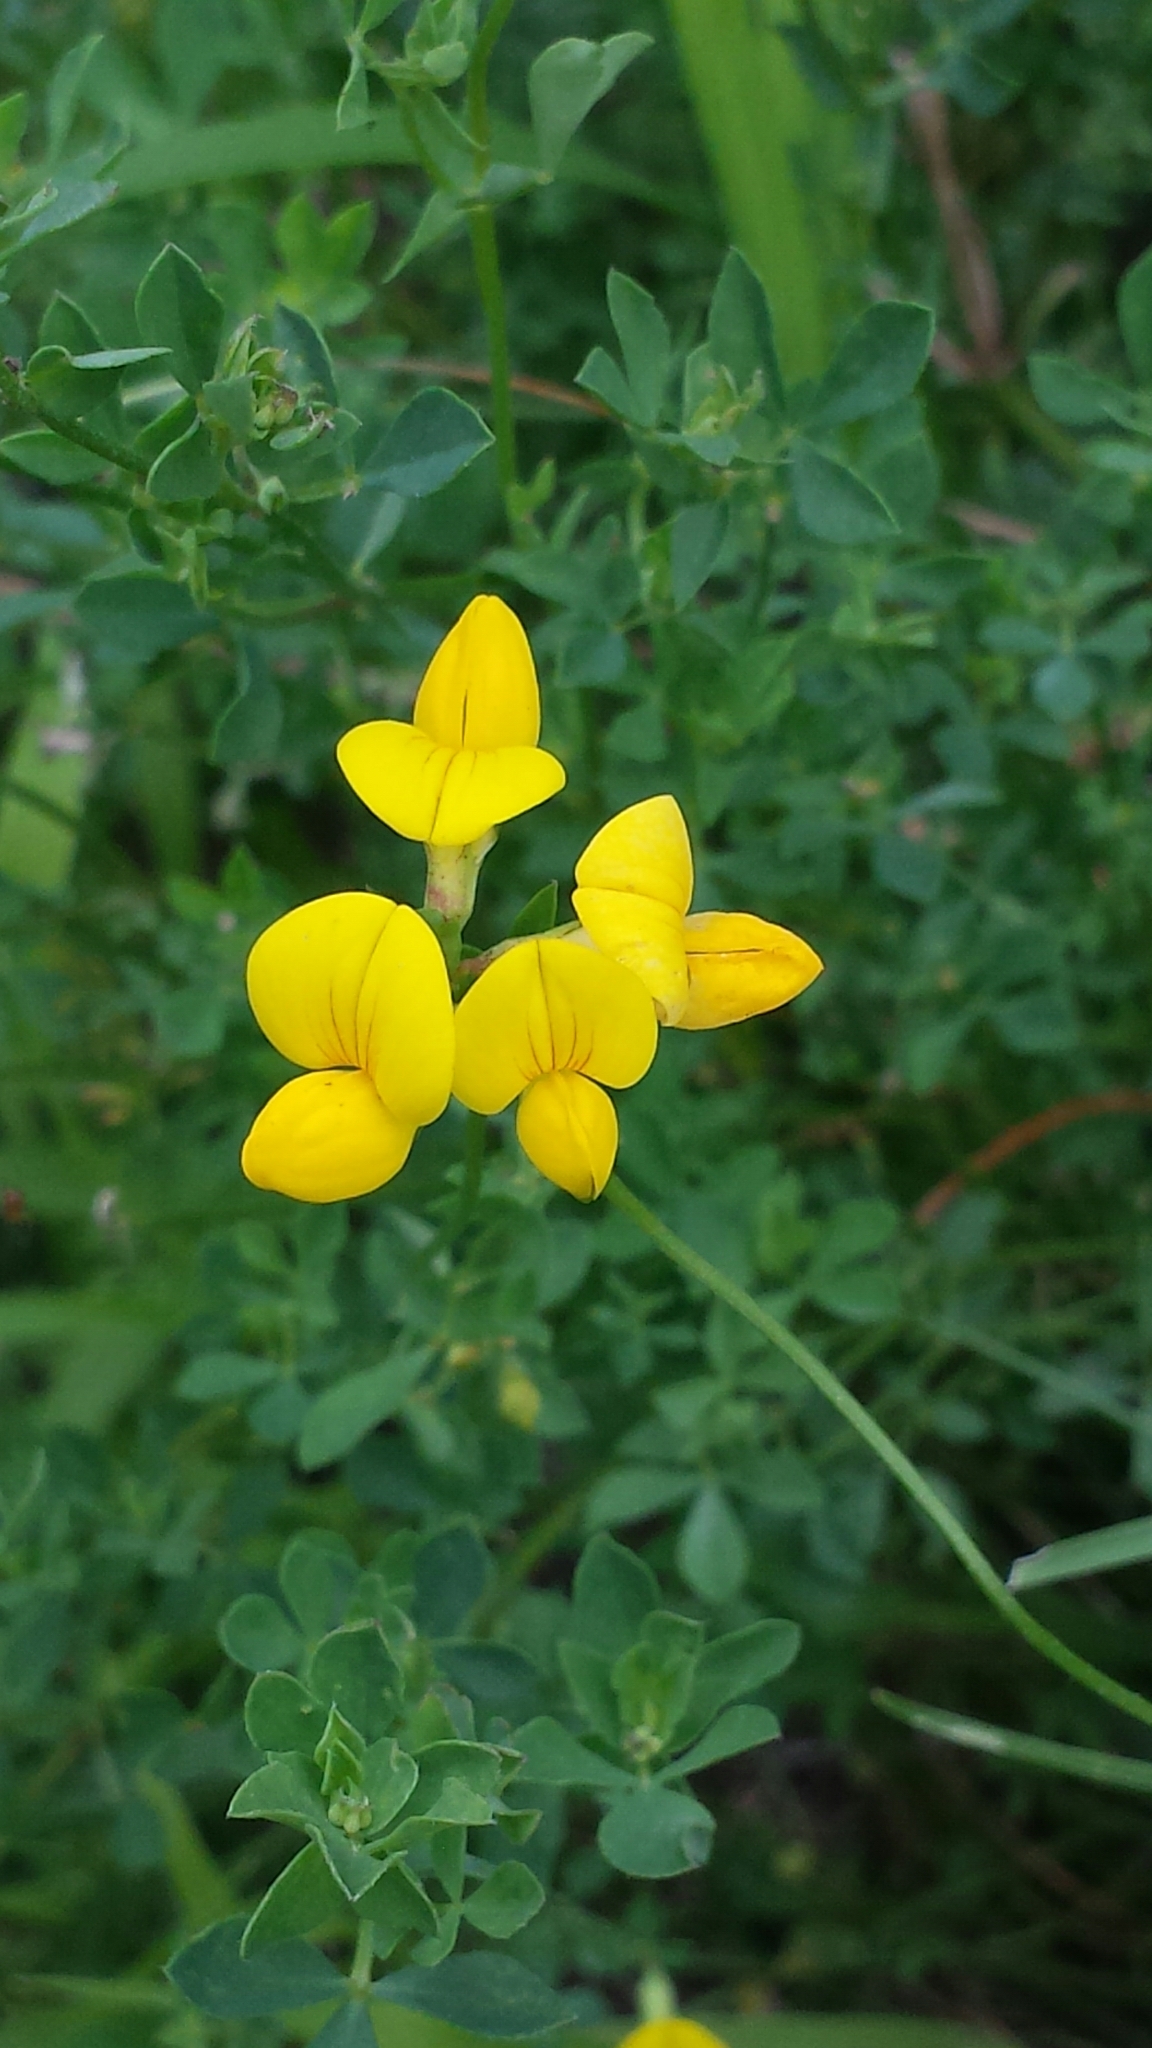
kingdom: Plantae
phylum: Tracheophyta
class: Magnoliopsida
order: Fabales
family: Fabaceae
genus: Lotus
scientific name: Lotus corniculatus
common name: Common bird's-foot-trefoil
